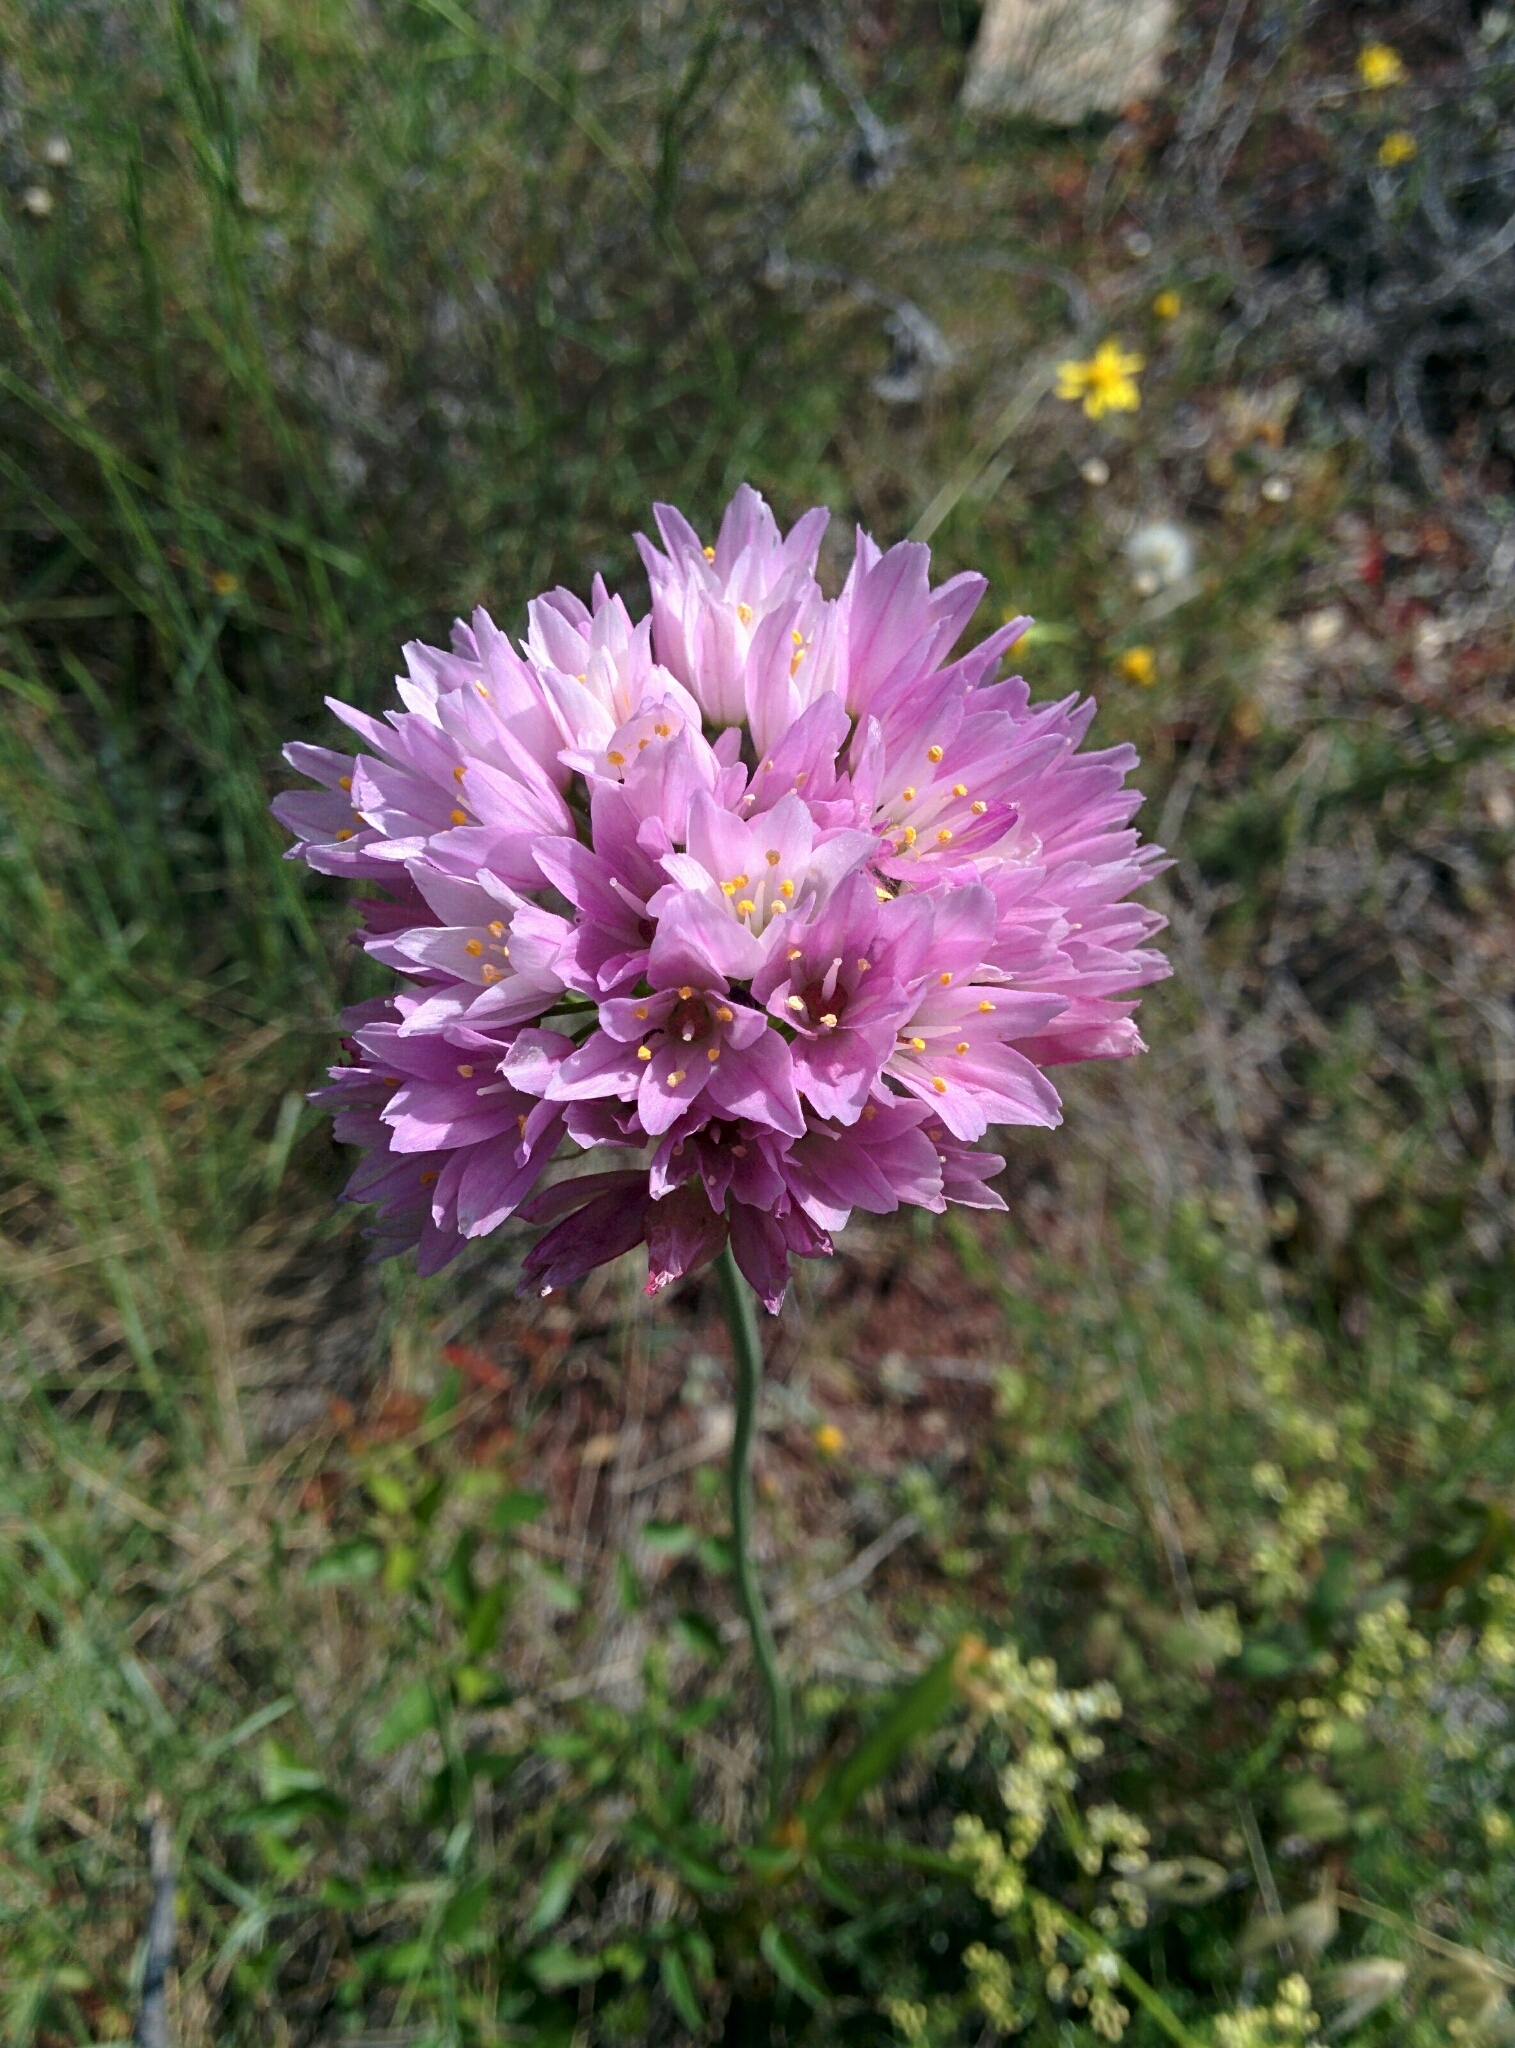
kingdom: Plantae
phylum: Tracheophyta
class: Liliopsida
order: Asparagales
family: Amaryllidaceae
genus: Allium
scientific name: Allium roseum
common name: Rosy garlic
